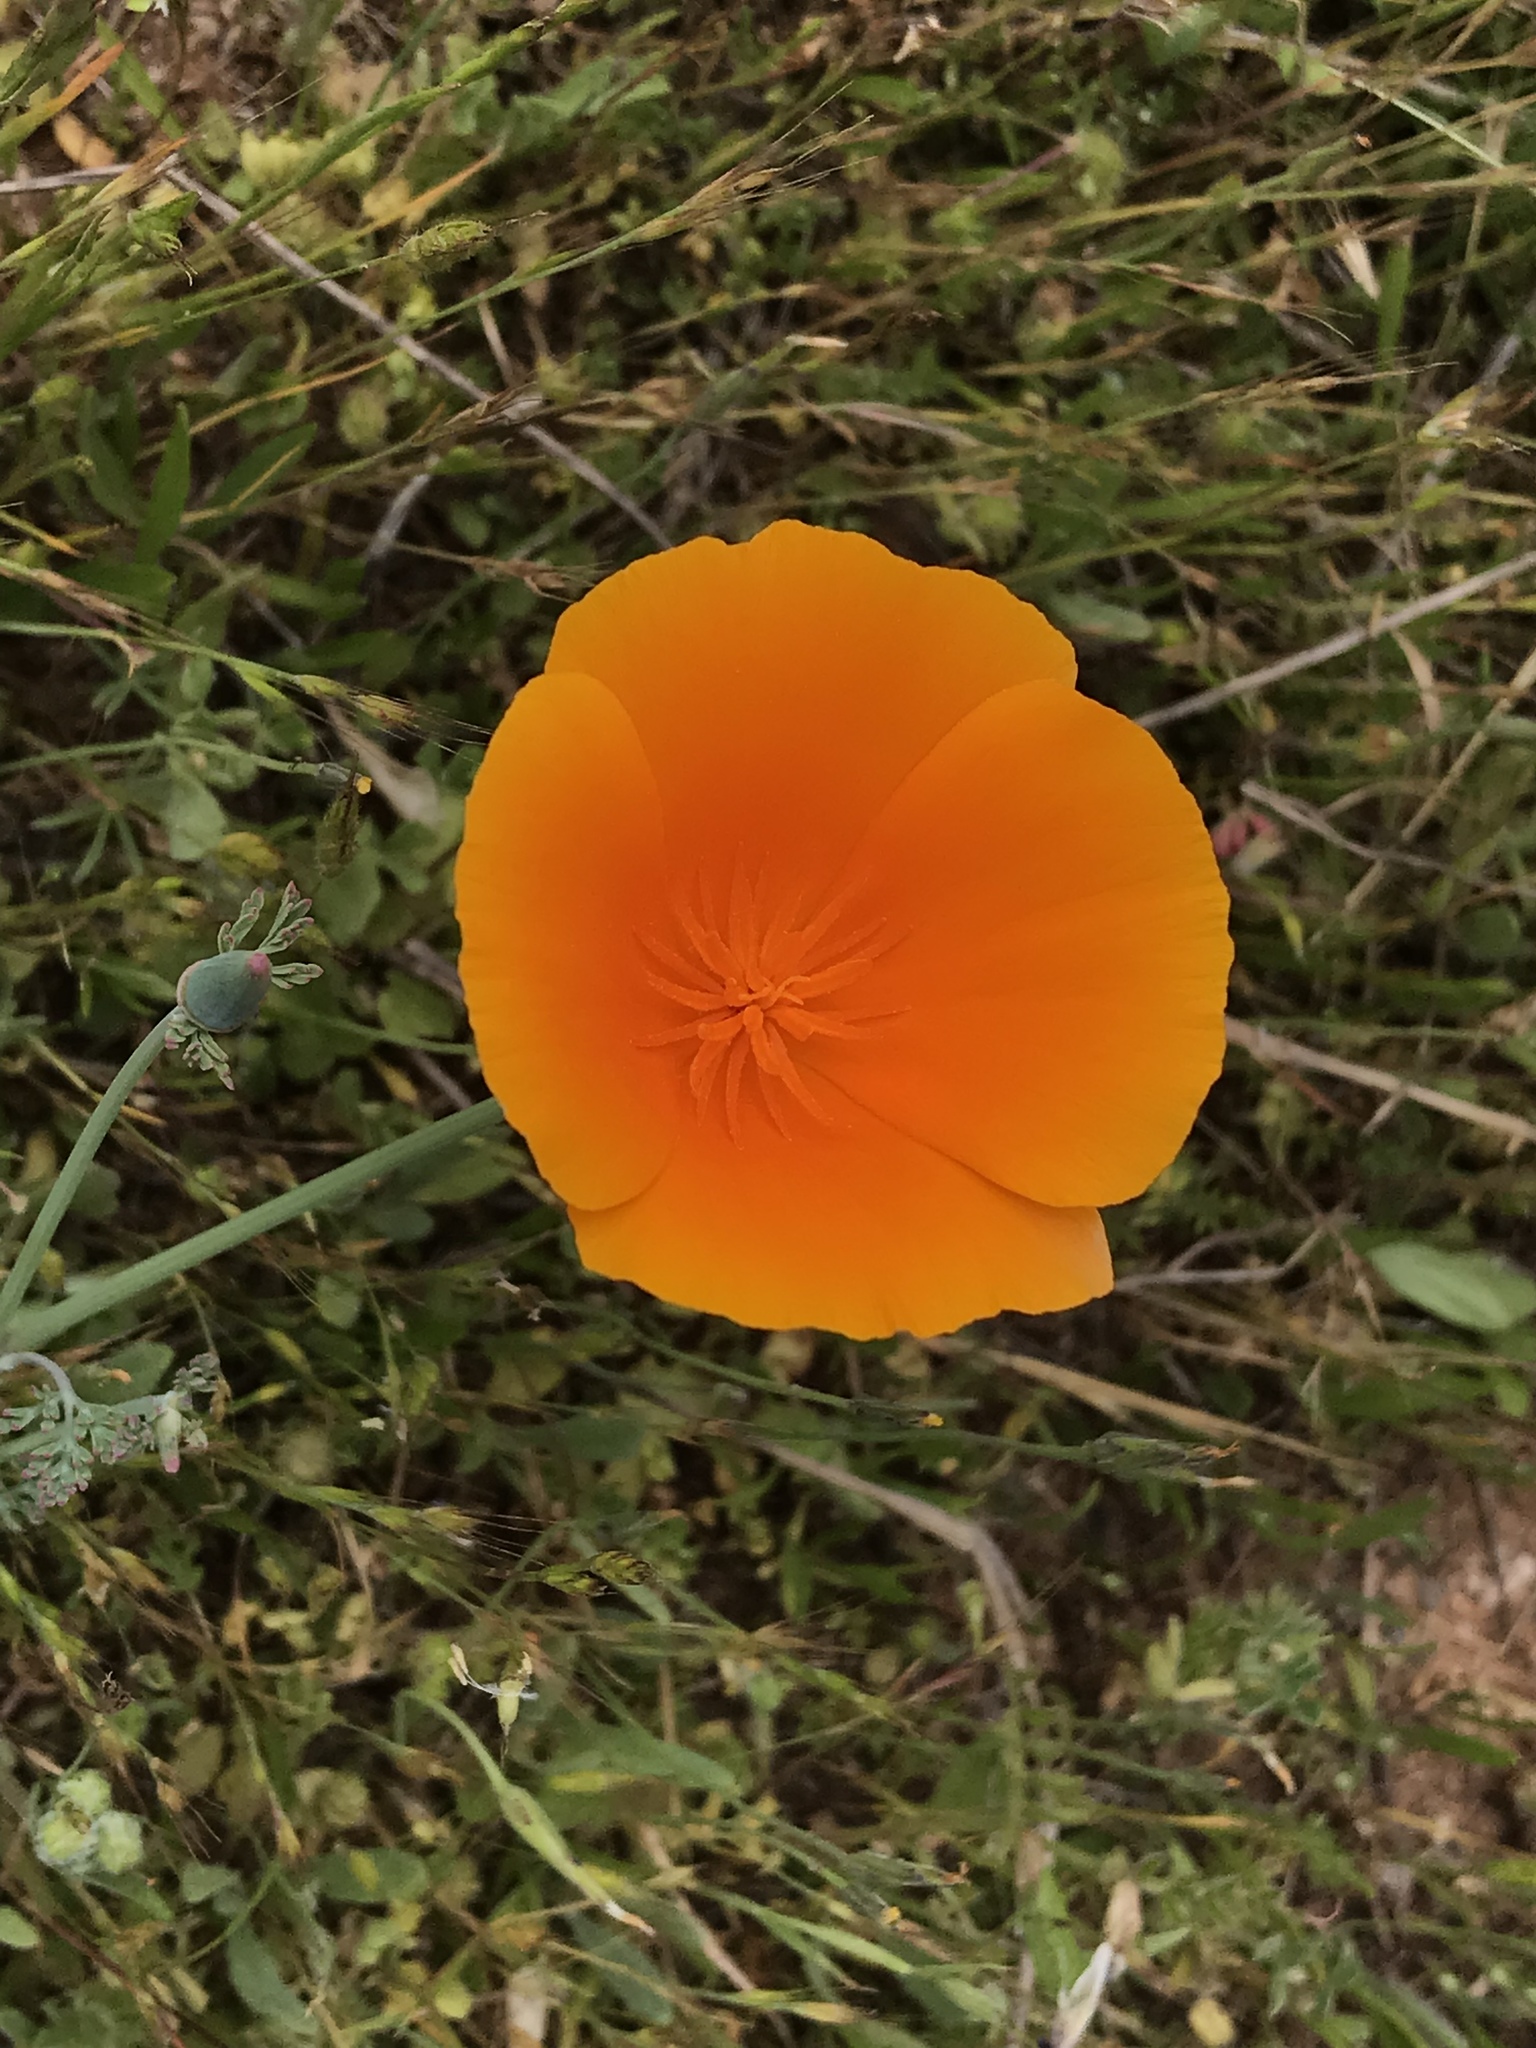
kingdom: Plantae
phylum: Tracheophyta
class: Magnoliopsida
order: Ranunculales
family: Papaveraceae
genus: Eschscholzia
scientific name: Eschscholzia californica
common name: California poppy
